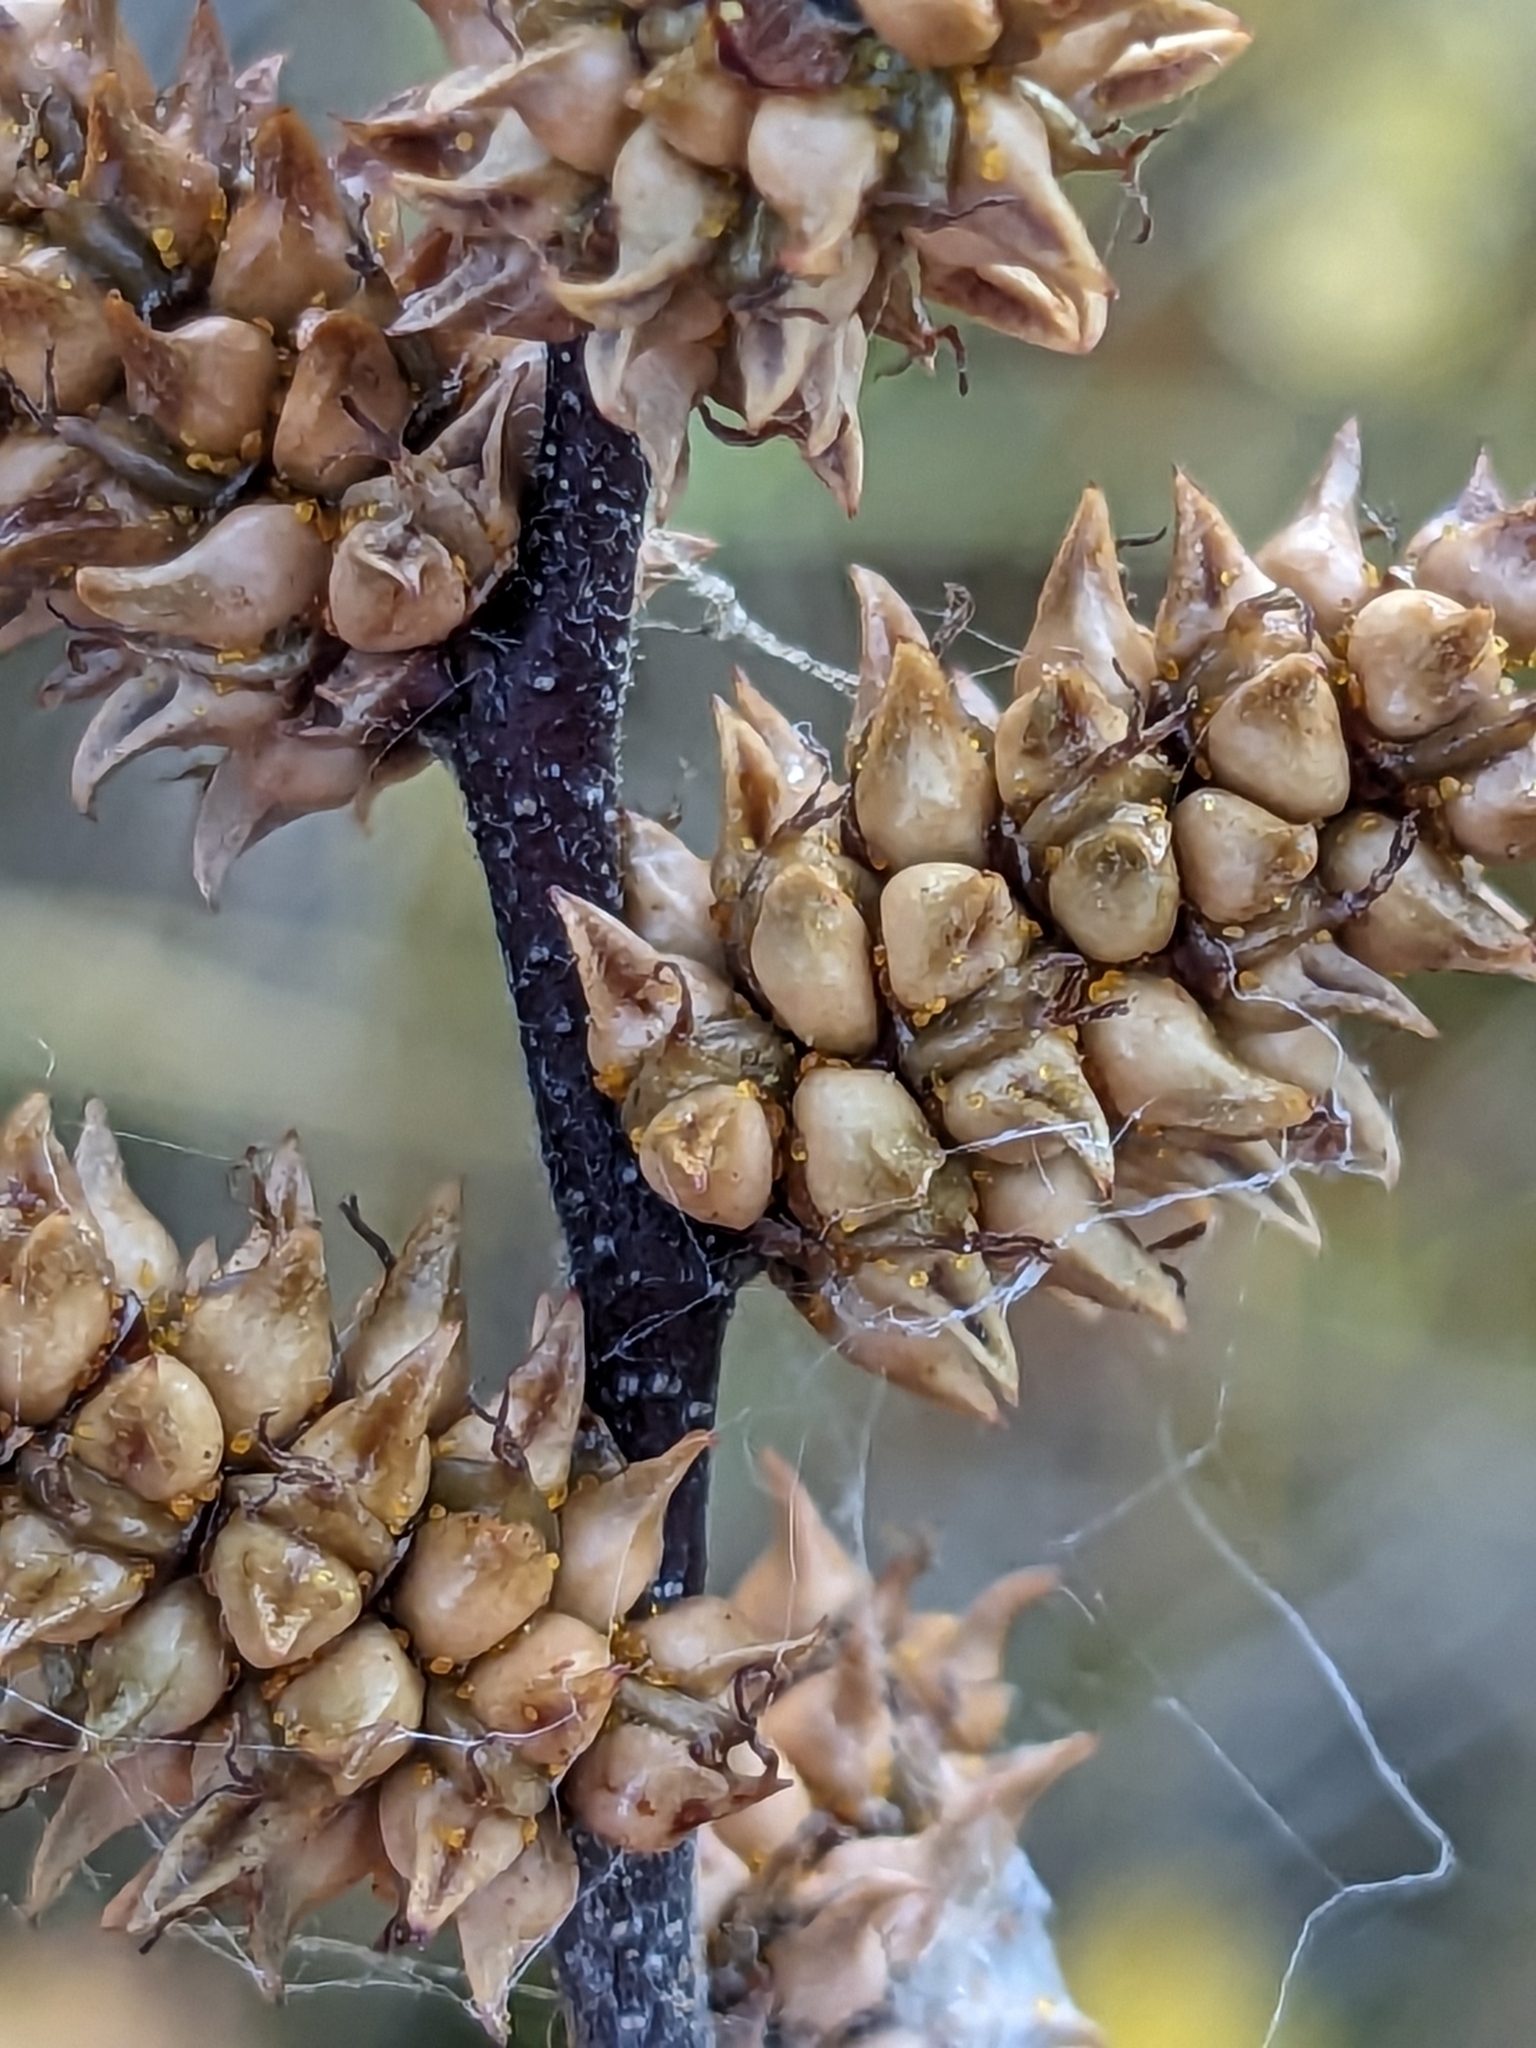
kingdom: Plantae
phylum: Tracheophyta
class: Magnoliopsida
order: Fagales
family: Myricaceae
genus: Myrica
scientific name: Myrica gale
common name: Sweet gale
